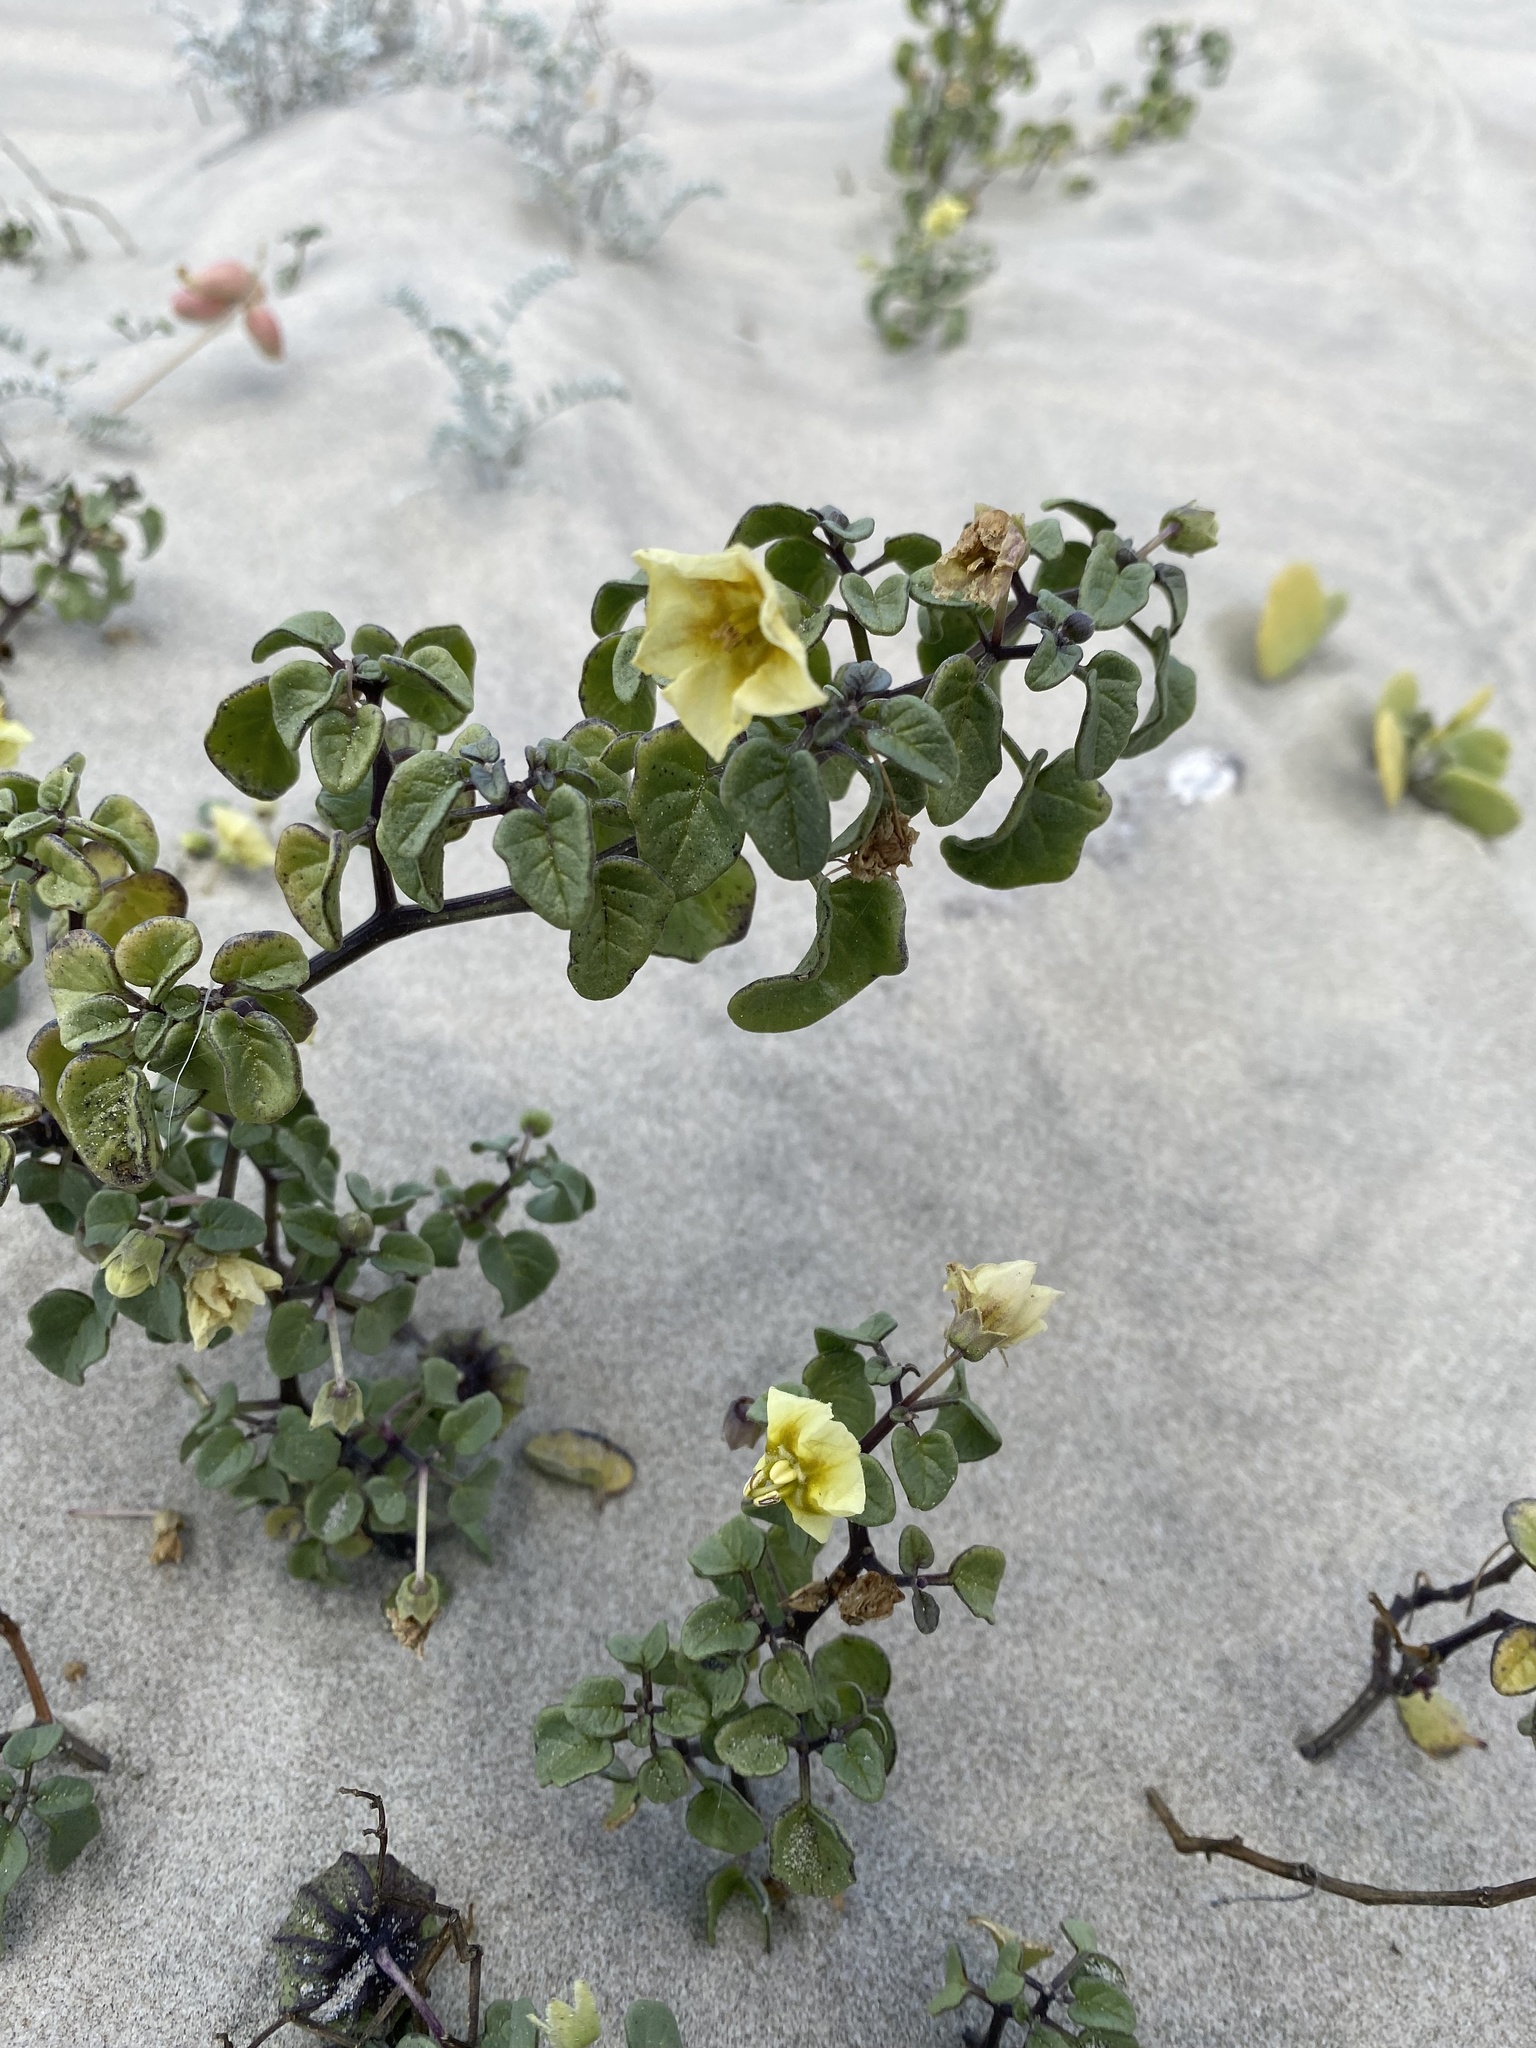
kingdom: Plantae
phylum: Tracheophyta
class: Magnoliopsida
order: Solanales
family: Solanaceae
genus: Physalis
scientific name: Physalis crassifolia
